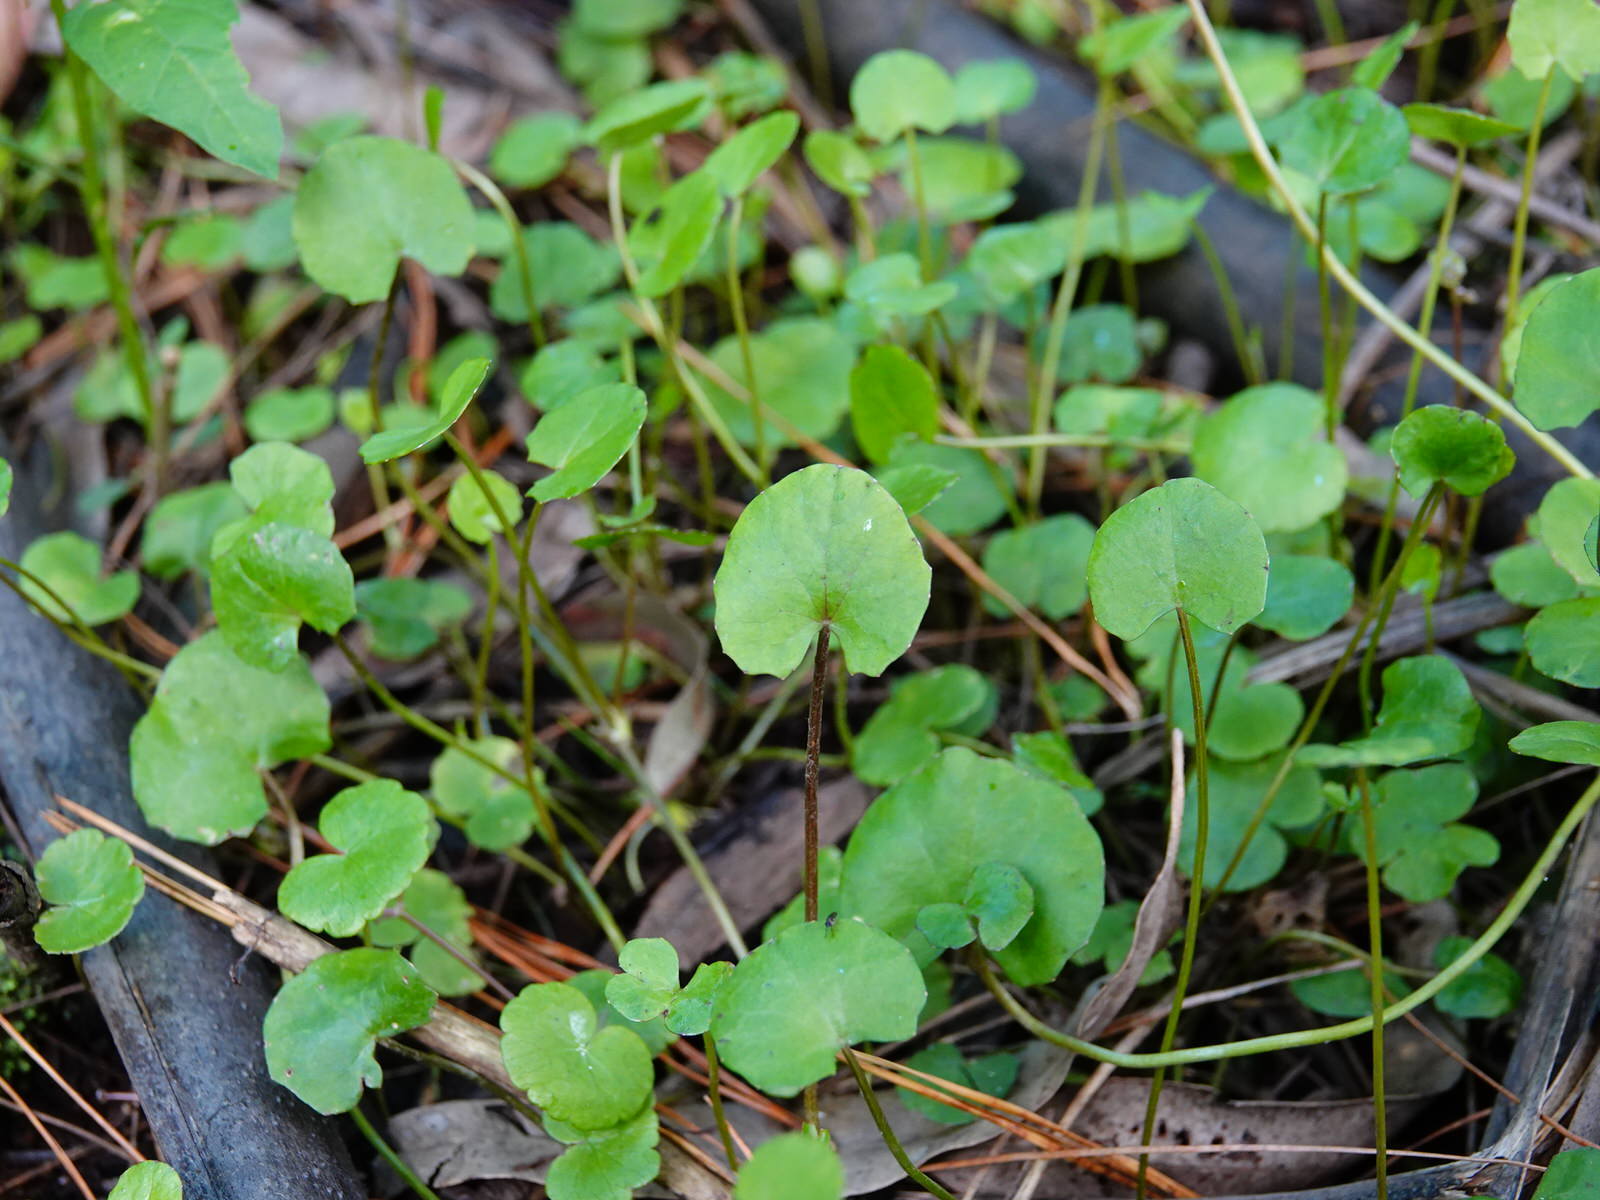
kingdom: Plantae
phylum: Tracheophyta
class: Magnoliopsida
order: Apiales
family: Apiaceae
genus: Centella
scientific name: Centella uniflora
